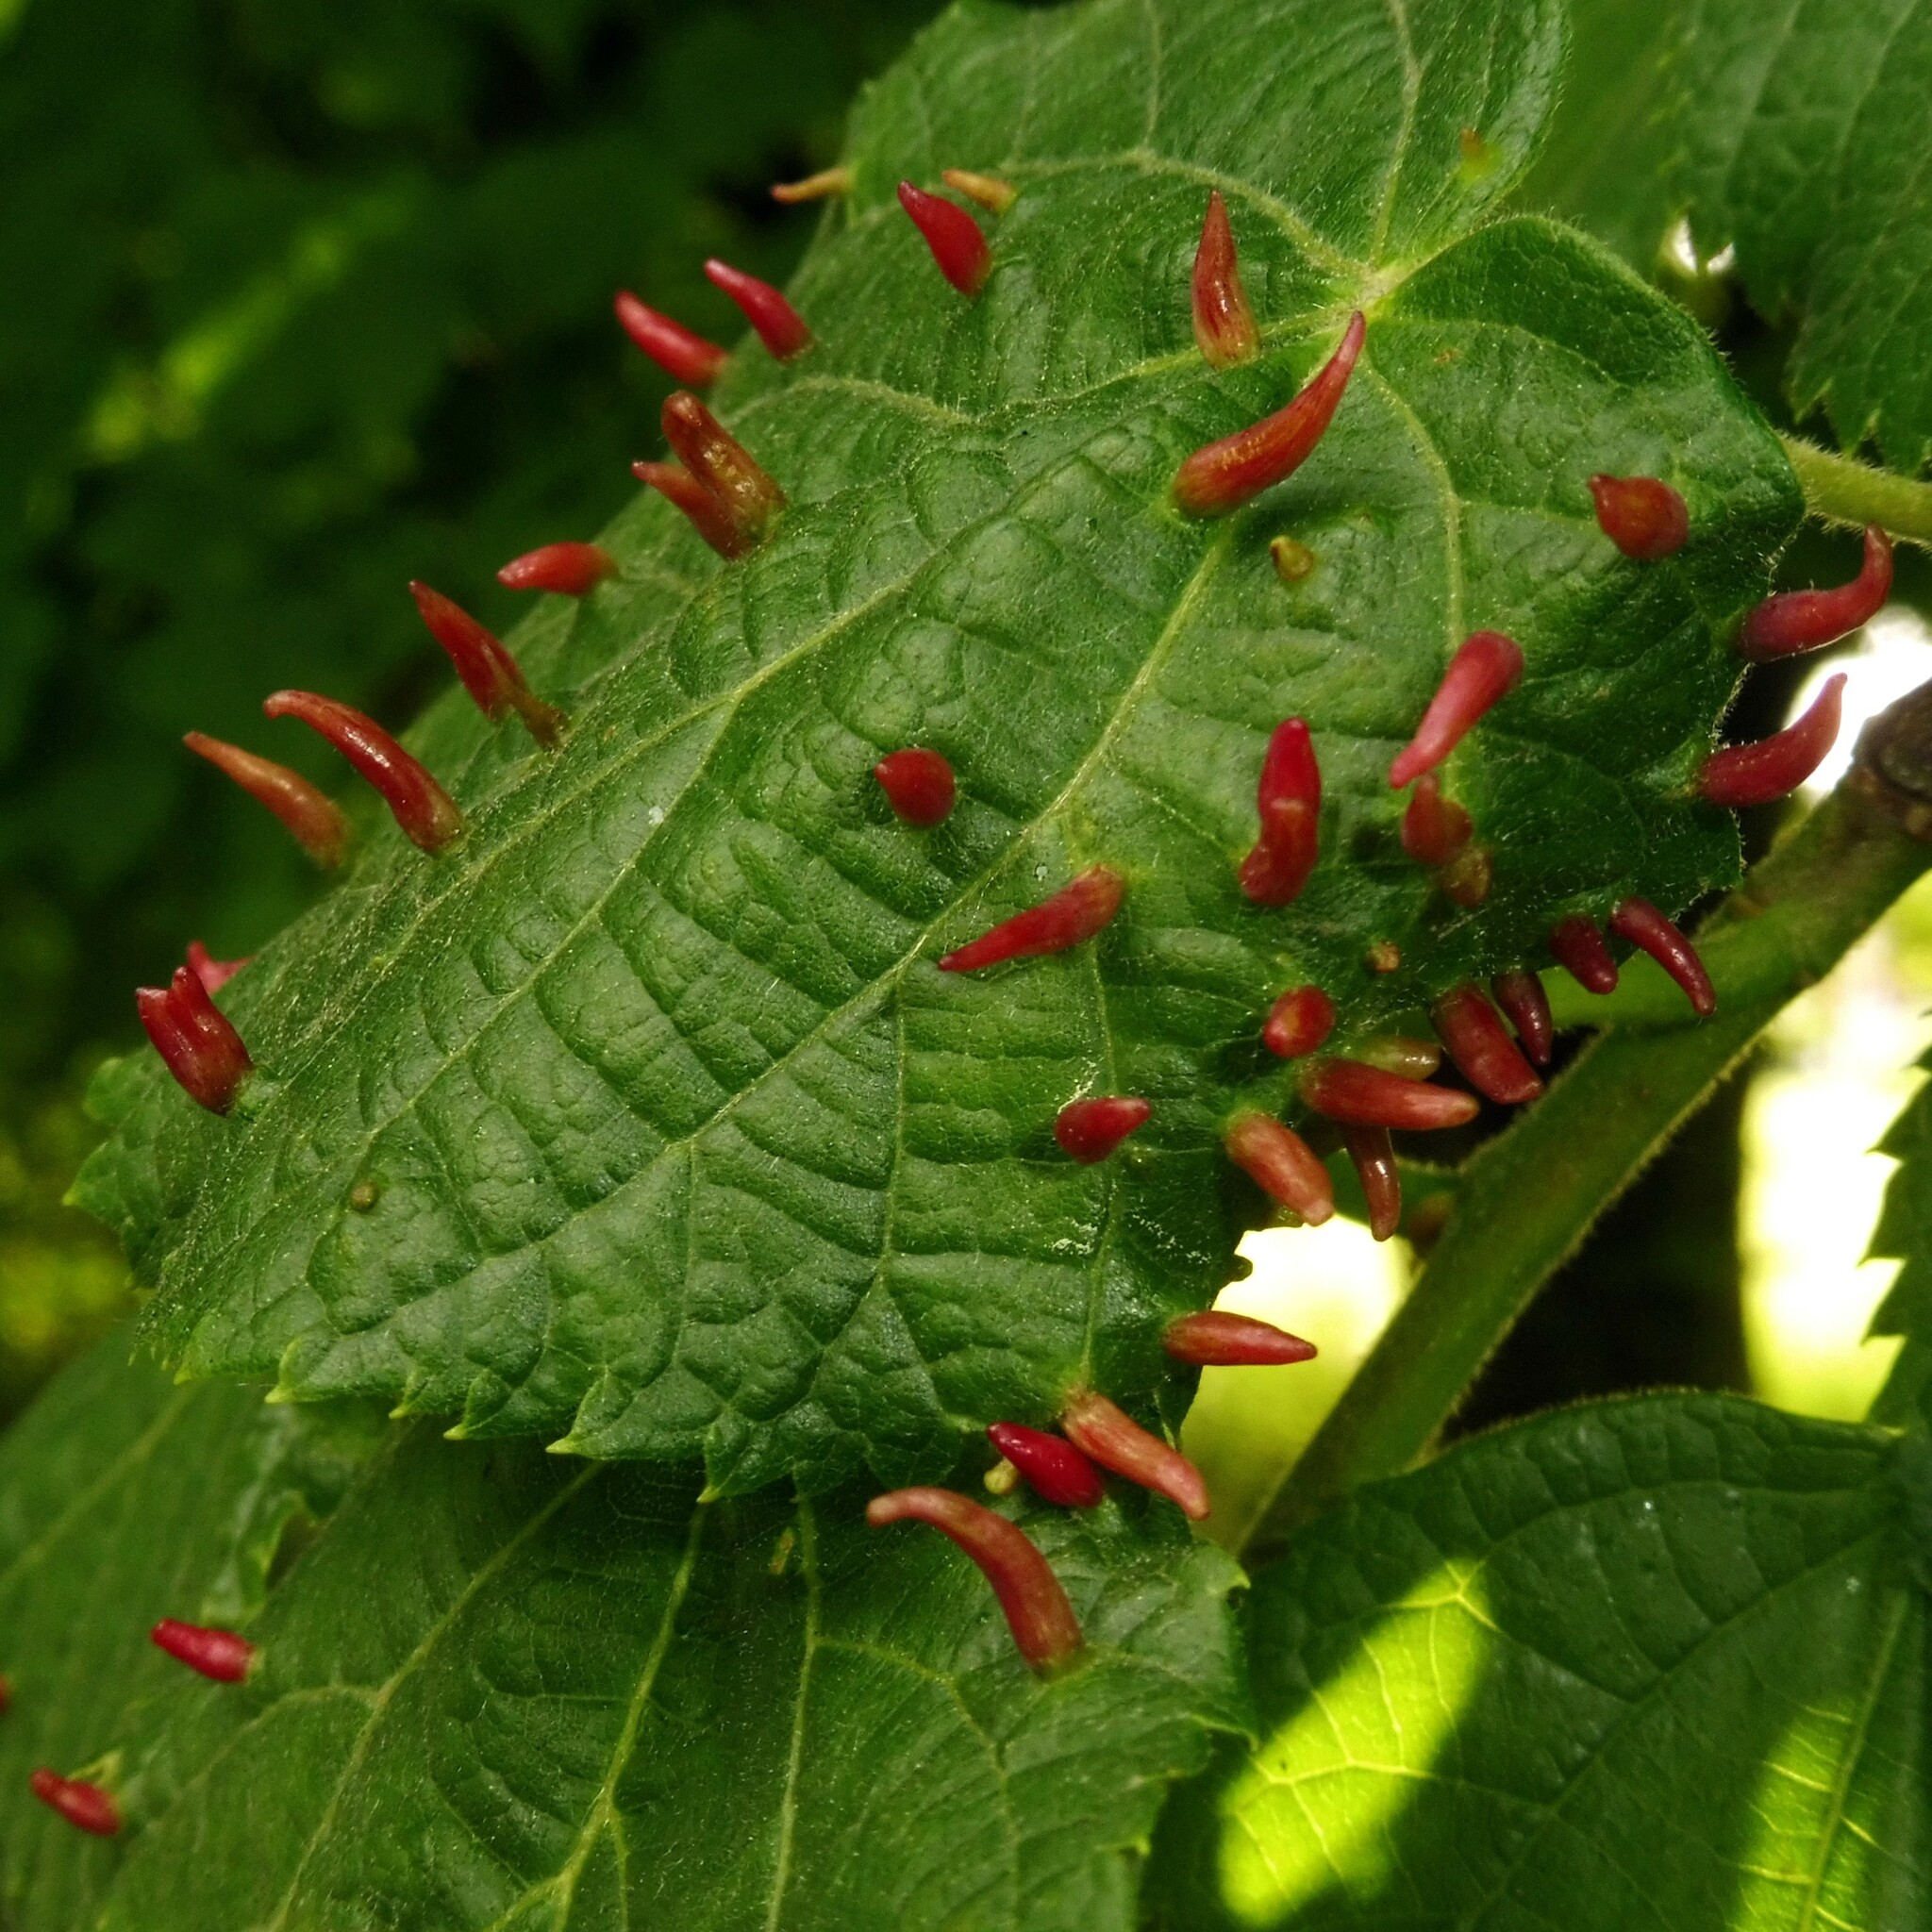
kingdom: Animalia
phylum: Arthropoda
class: Arachnida
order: Trombidiformes
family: Eriophyidae
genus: Eriophyes
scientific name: Eriophyes tiliae
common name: Red nail gall mite
